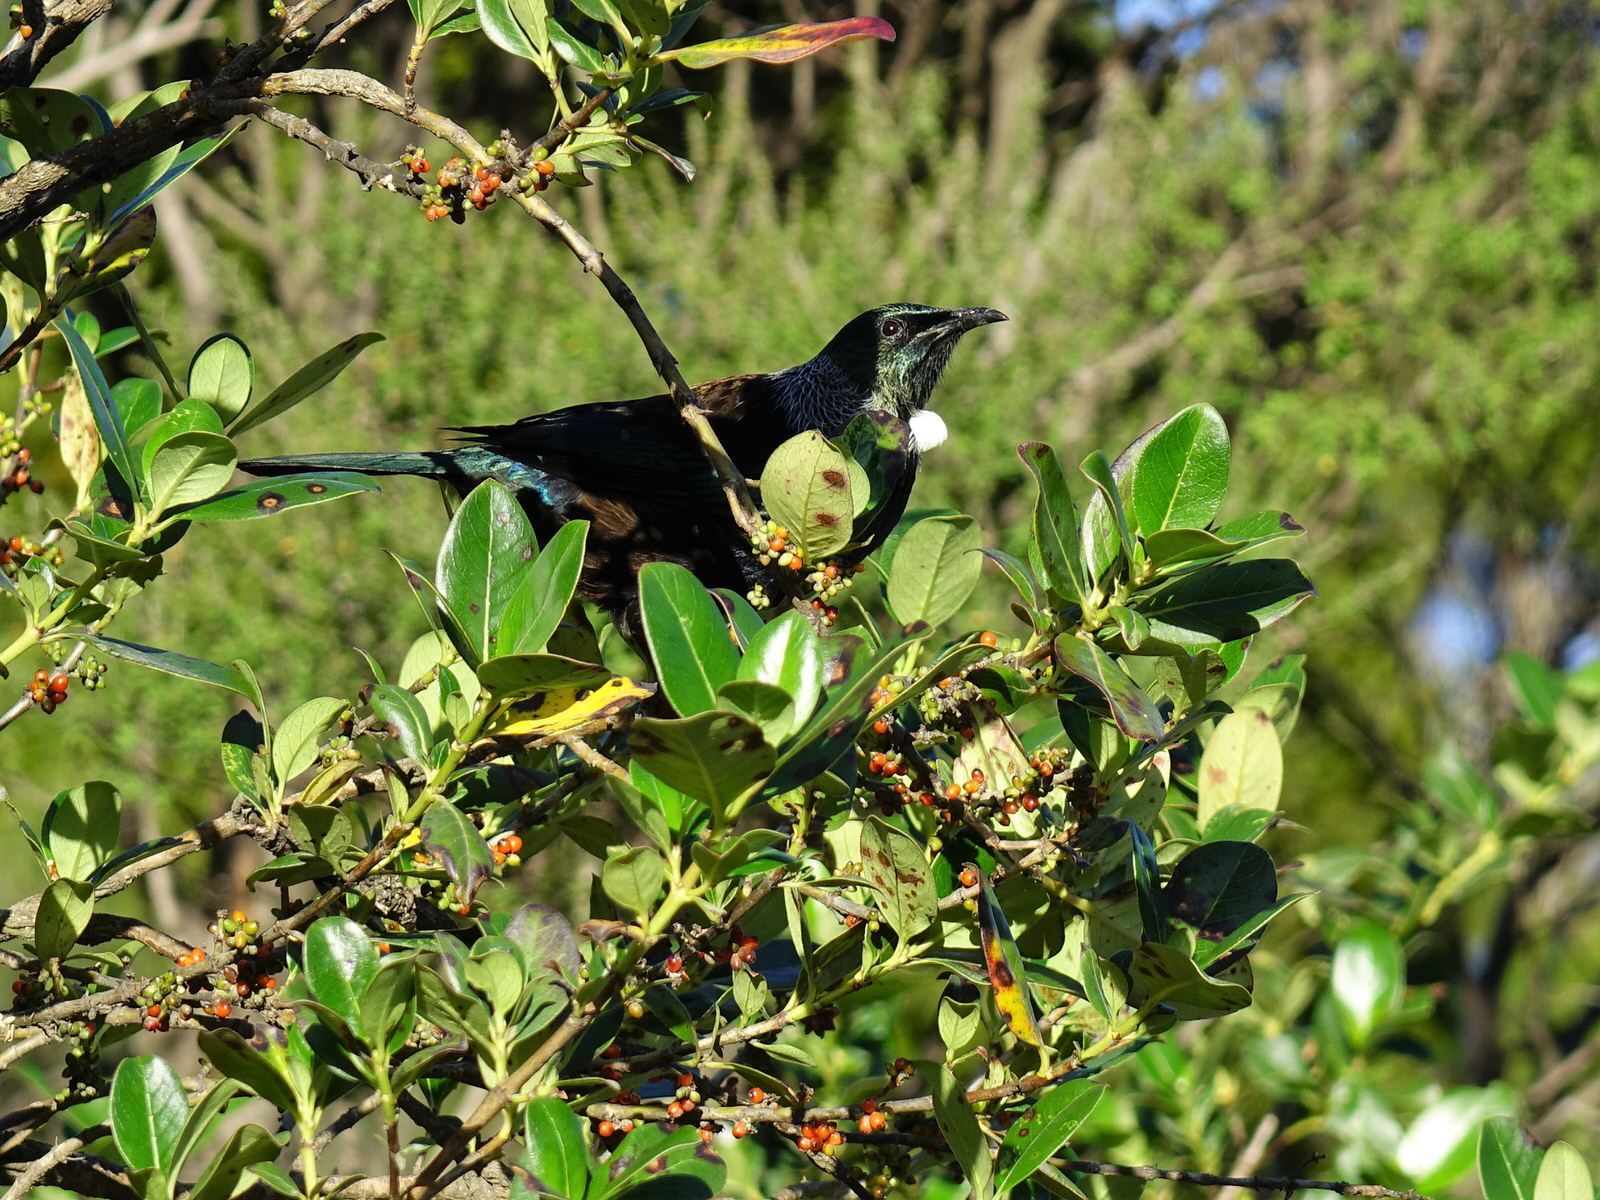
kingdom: Animalia
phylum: Chordata
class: Aves
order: Passeriformes
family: Meliphagidae
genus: Prosthemadera
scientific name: Prosthemadera novaeseelandiae
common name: Tui
